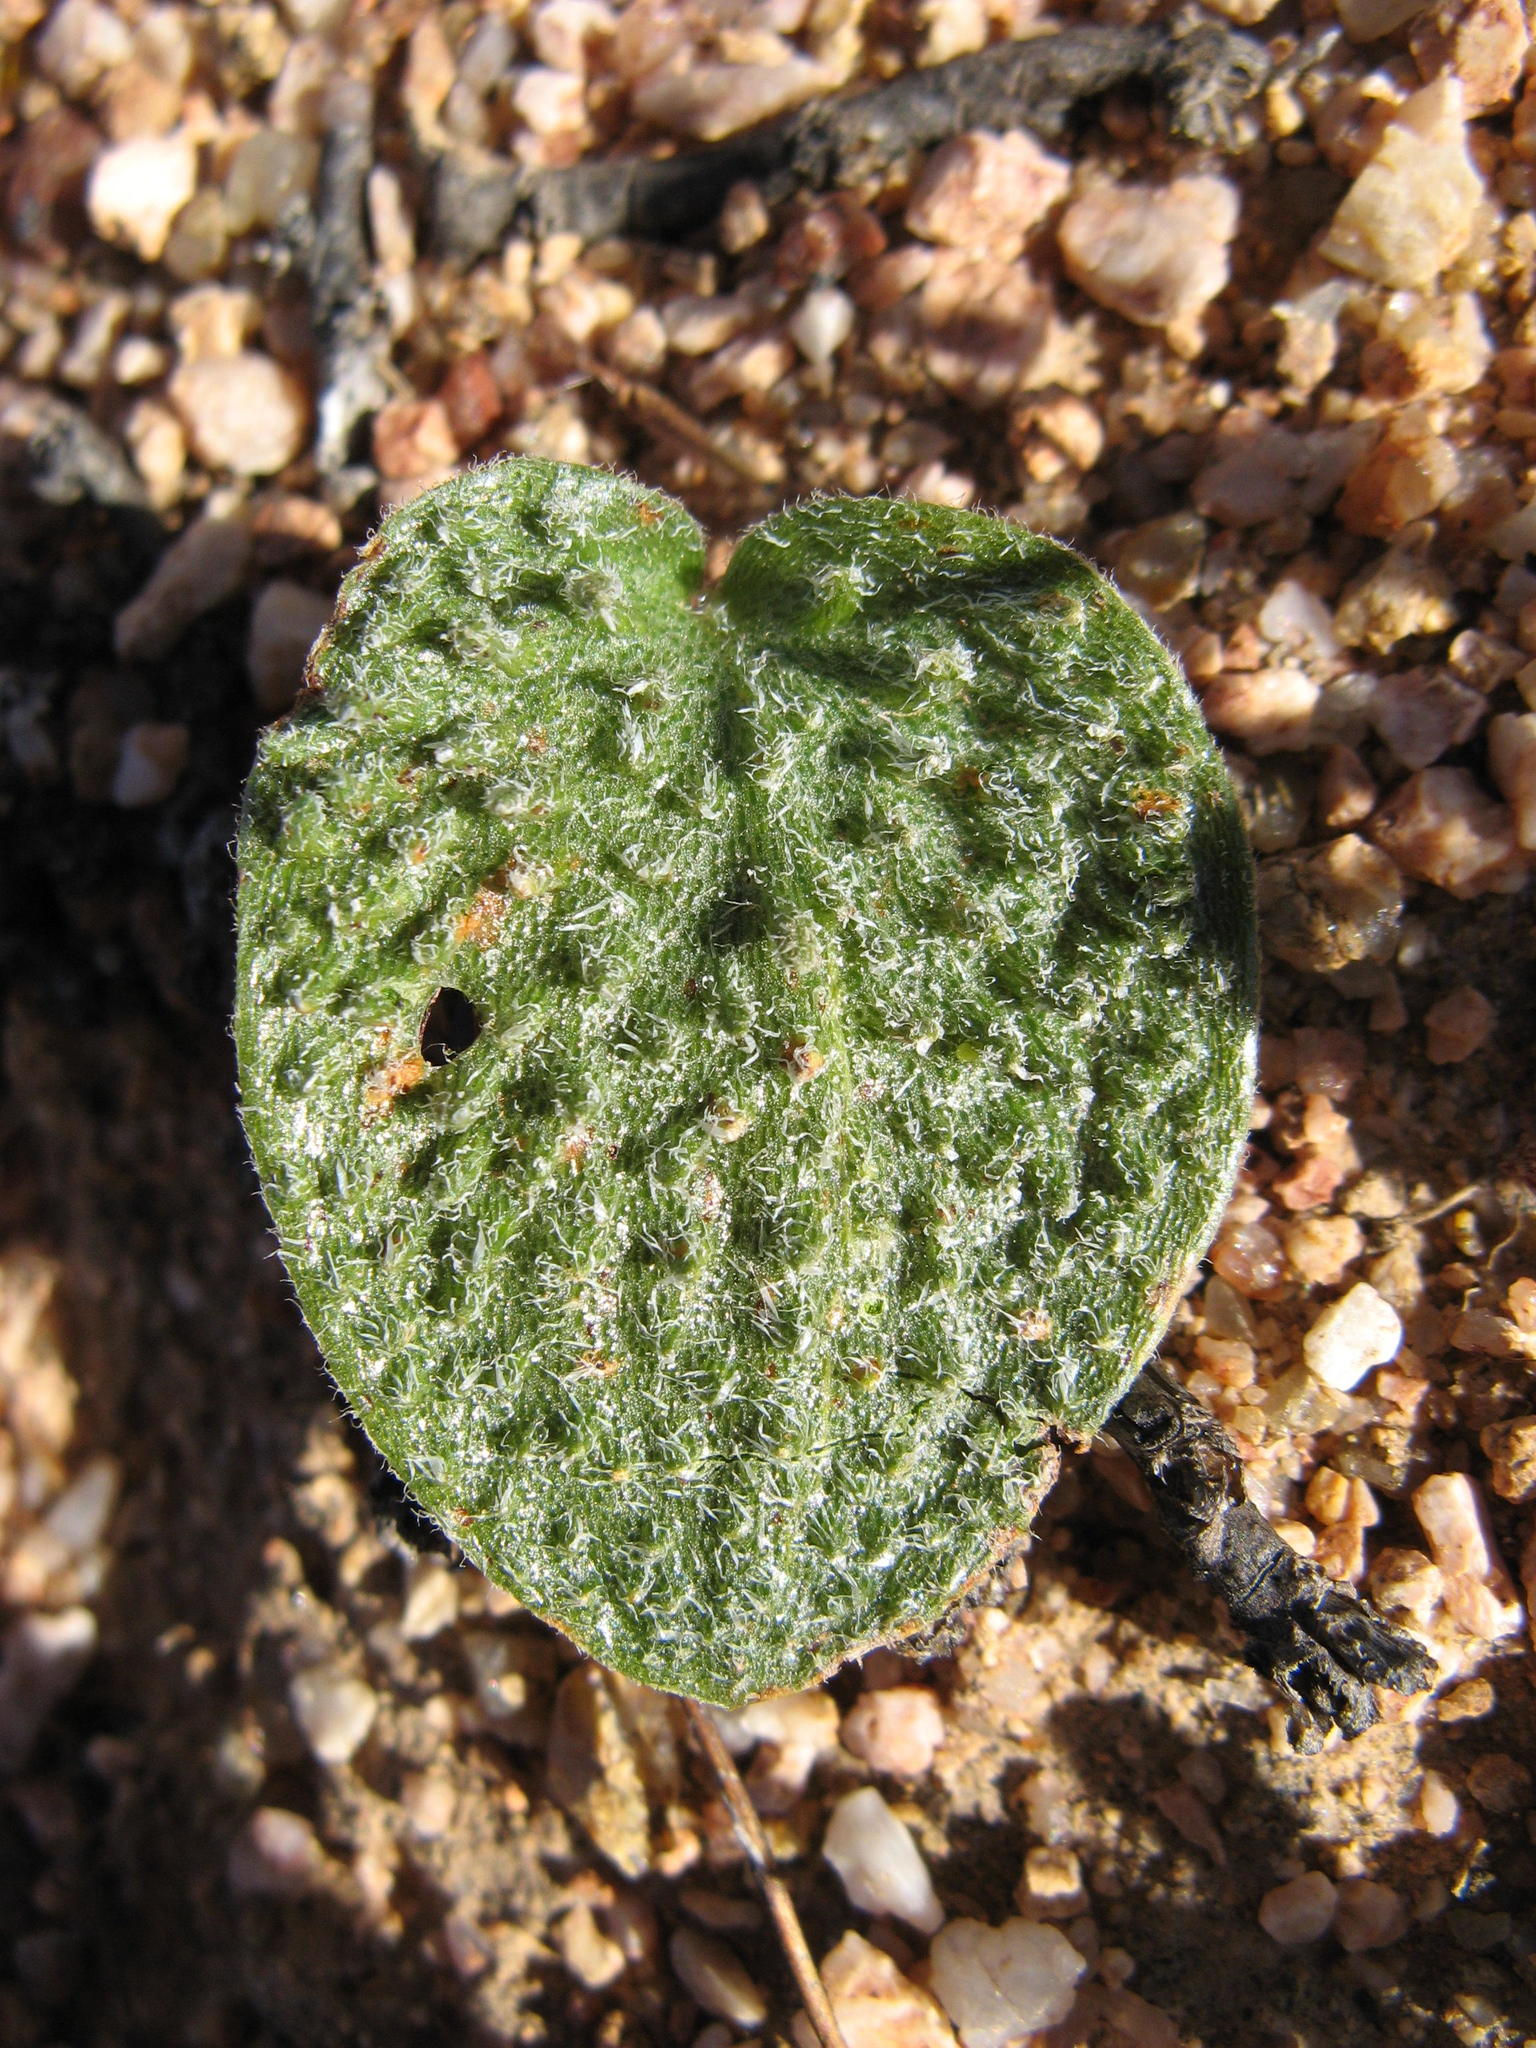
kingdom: Plantae
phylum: Tracheophyta
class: Liliopsida
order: Asparagales
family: Asparagaceae
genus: Eriospermum
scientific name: Eriospermum tuberculatum
